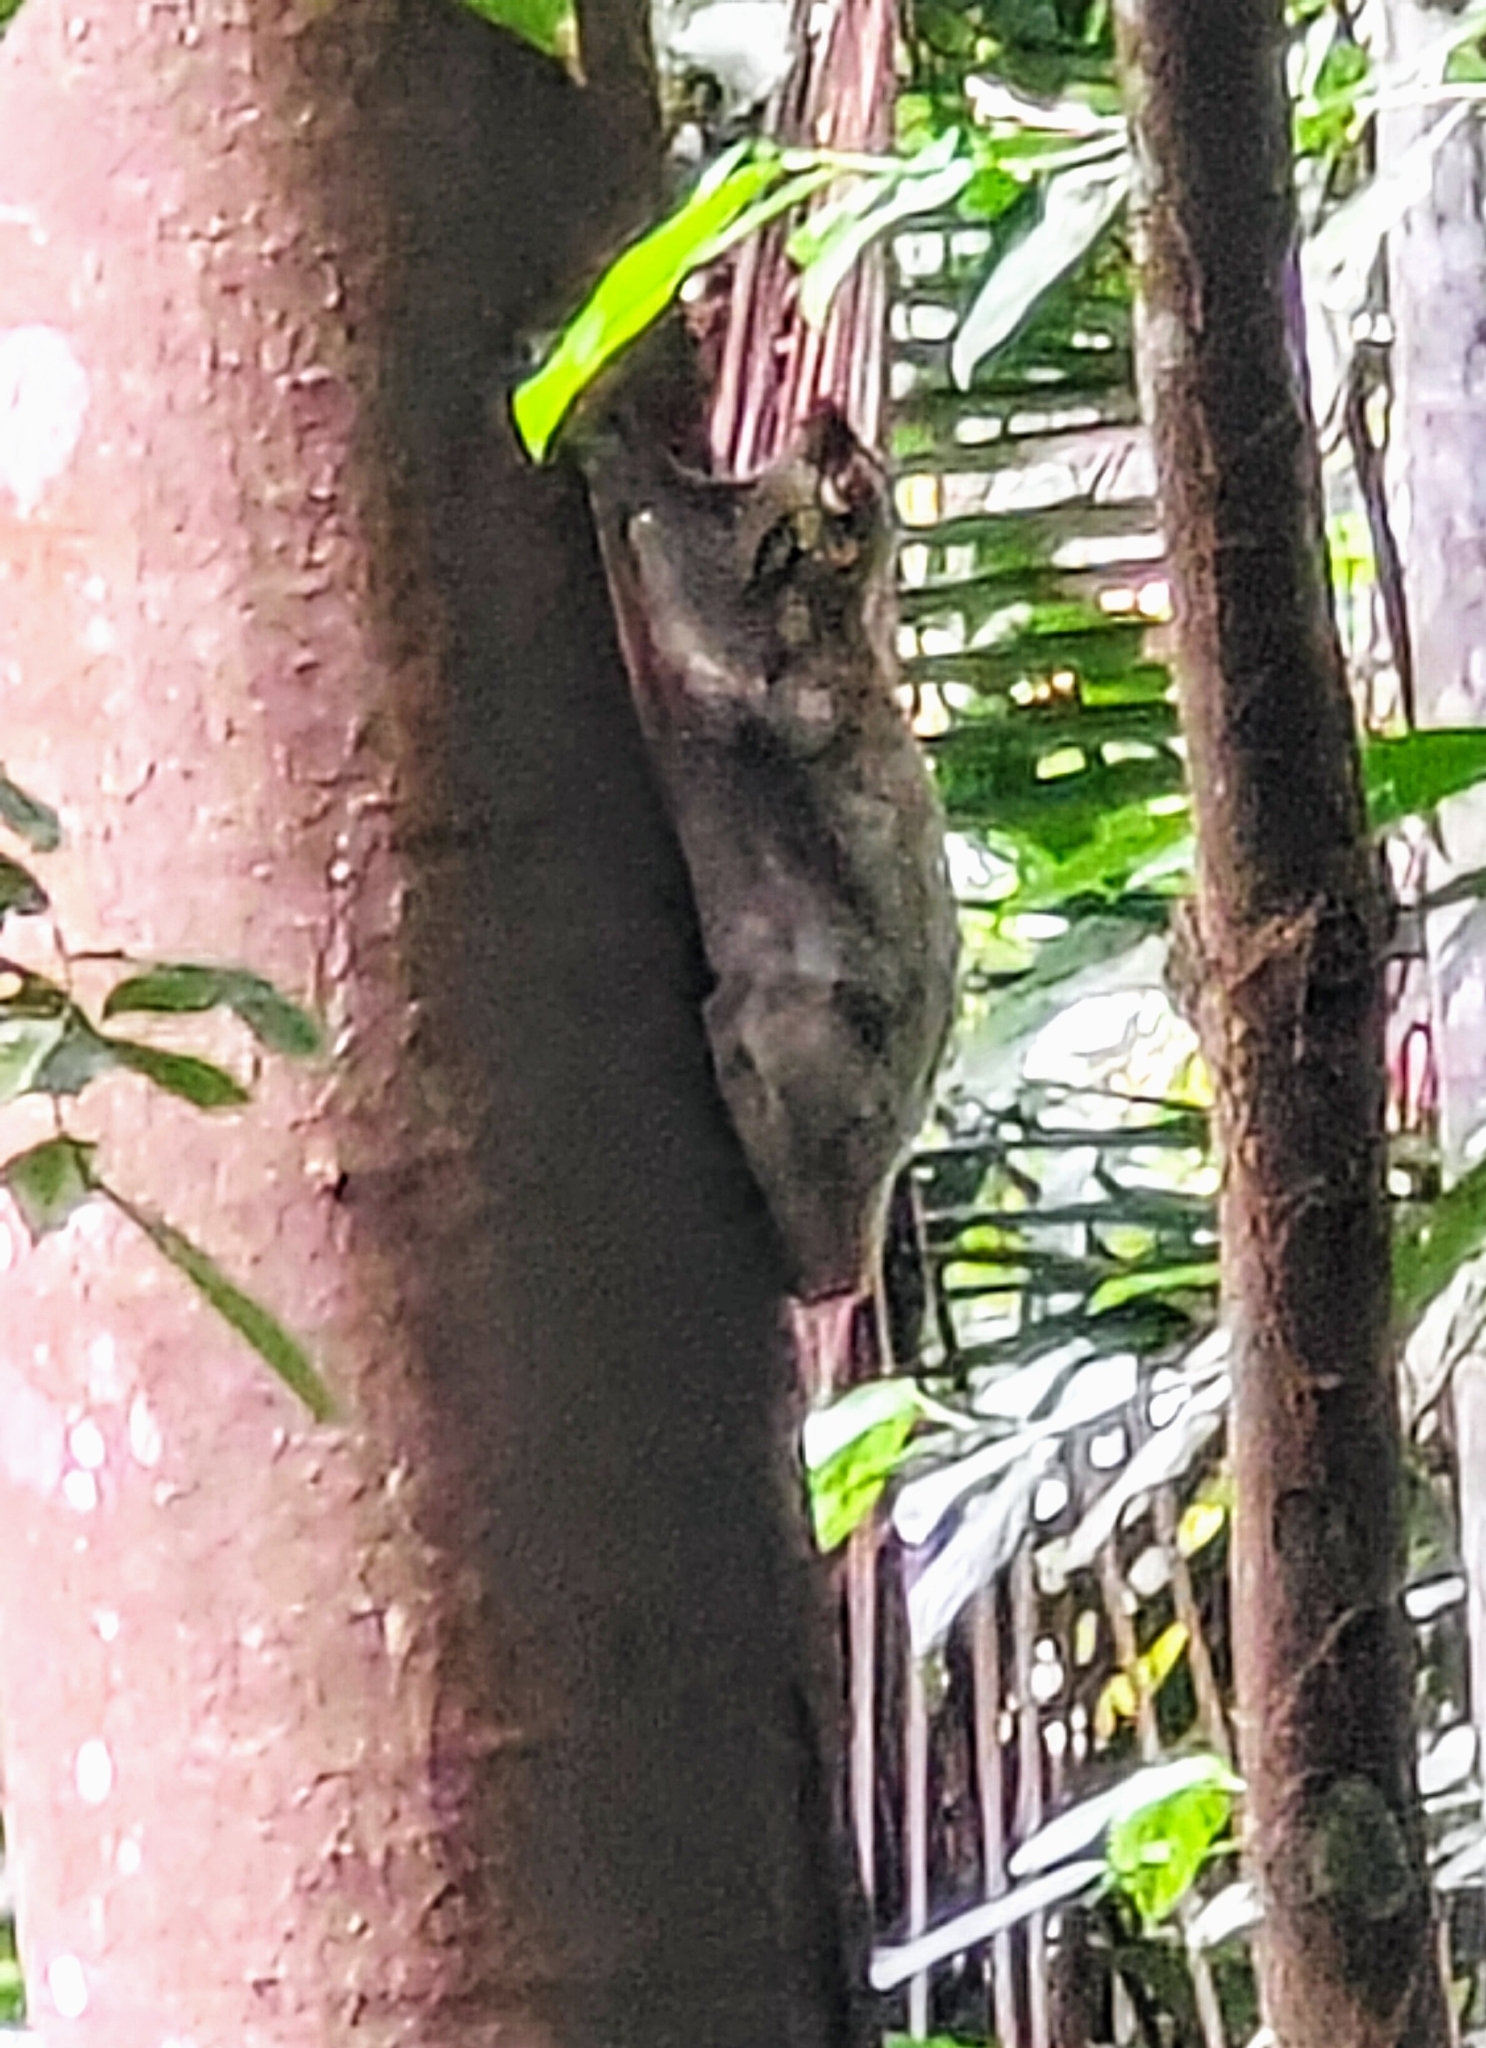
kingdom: Animalia
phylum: Chordata
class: Mammalia
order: Dermoptera
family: Cynocephalidae
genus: Galeopterus
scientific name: Galeopterus variegatus
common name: Sunda flying lemur
